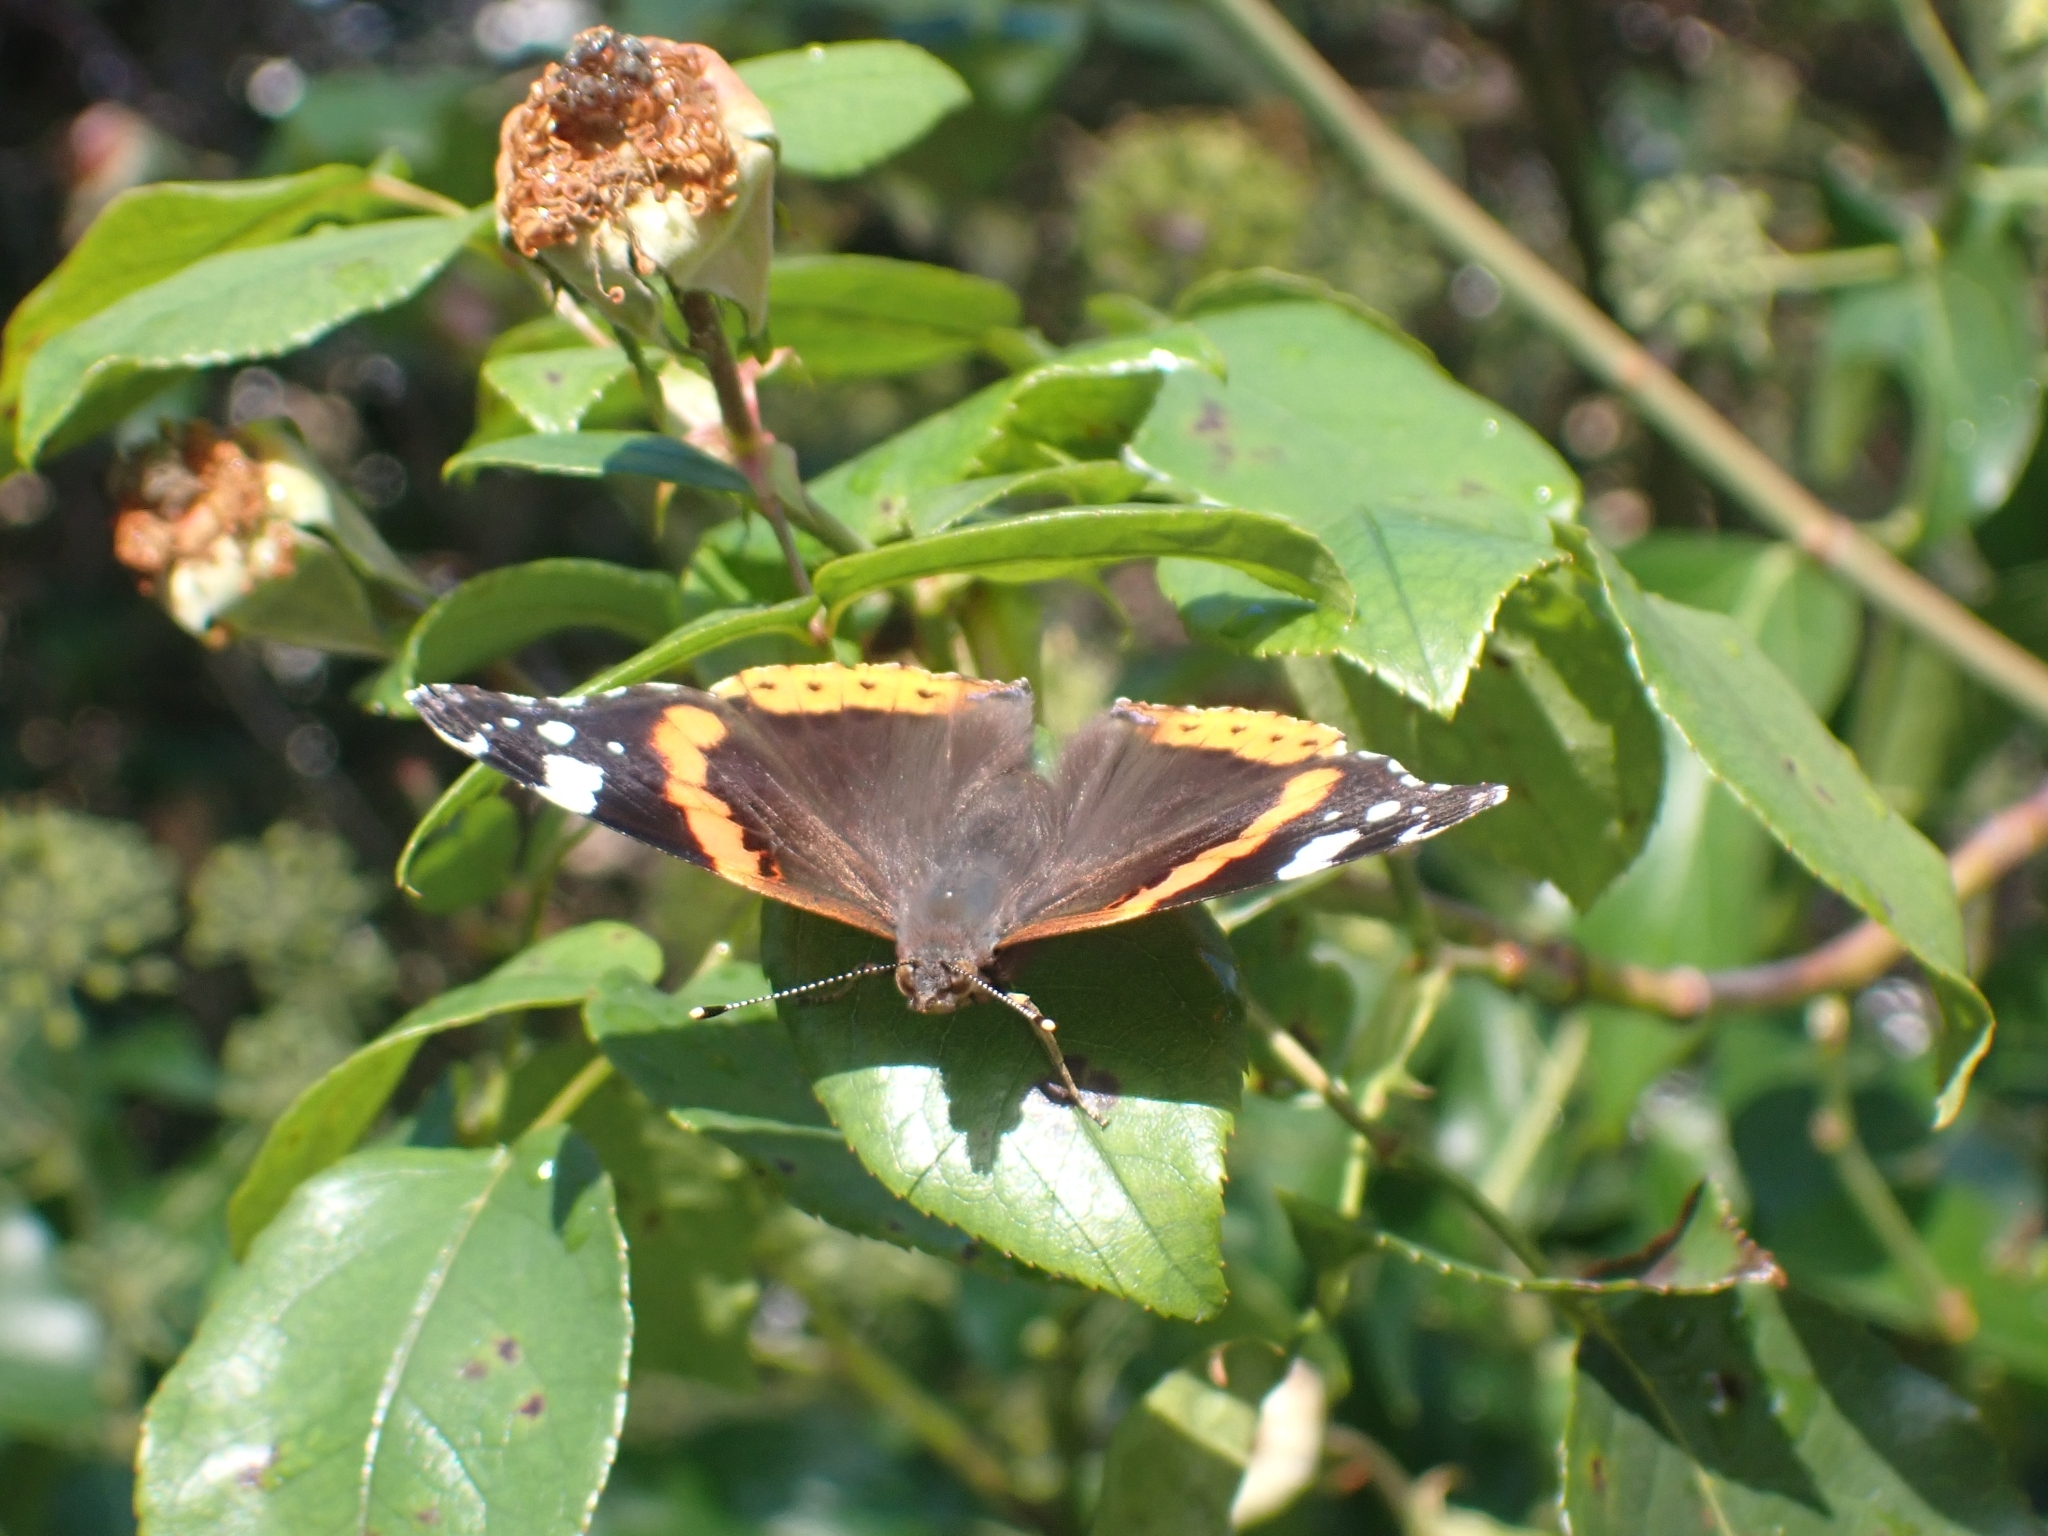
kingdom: Animalia
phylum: Arthropoda
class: Insecta
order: Lepidoptera
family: Nymphalidae
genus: Vanessa
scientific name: Vanessa atalanta
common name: Red admiral
